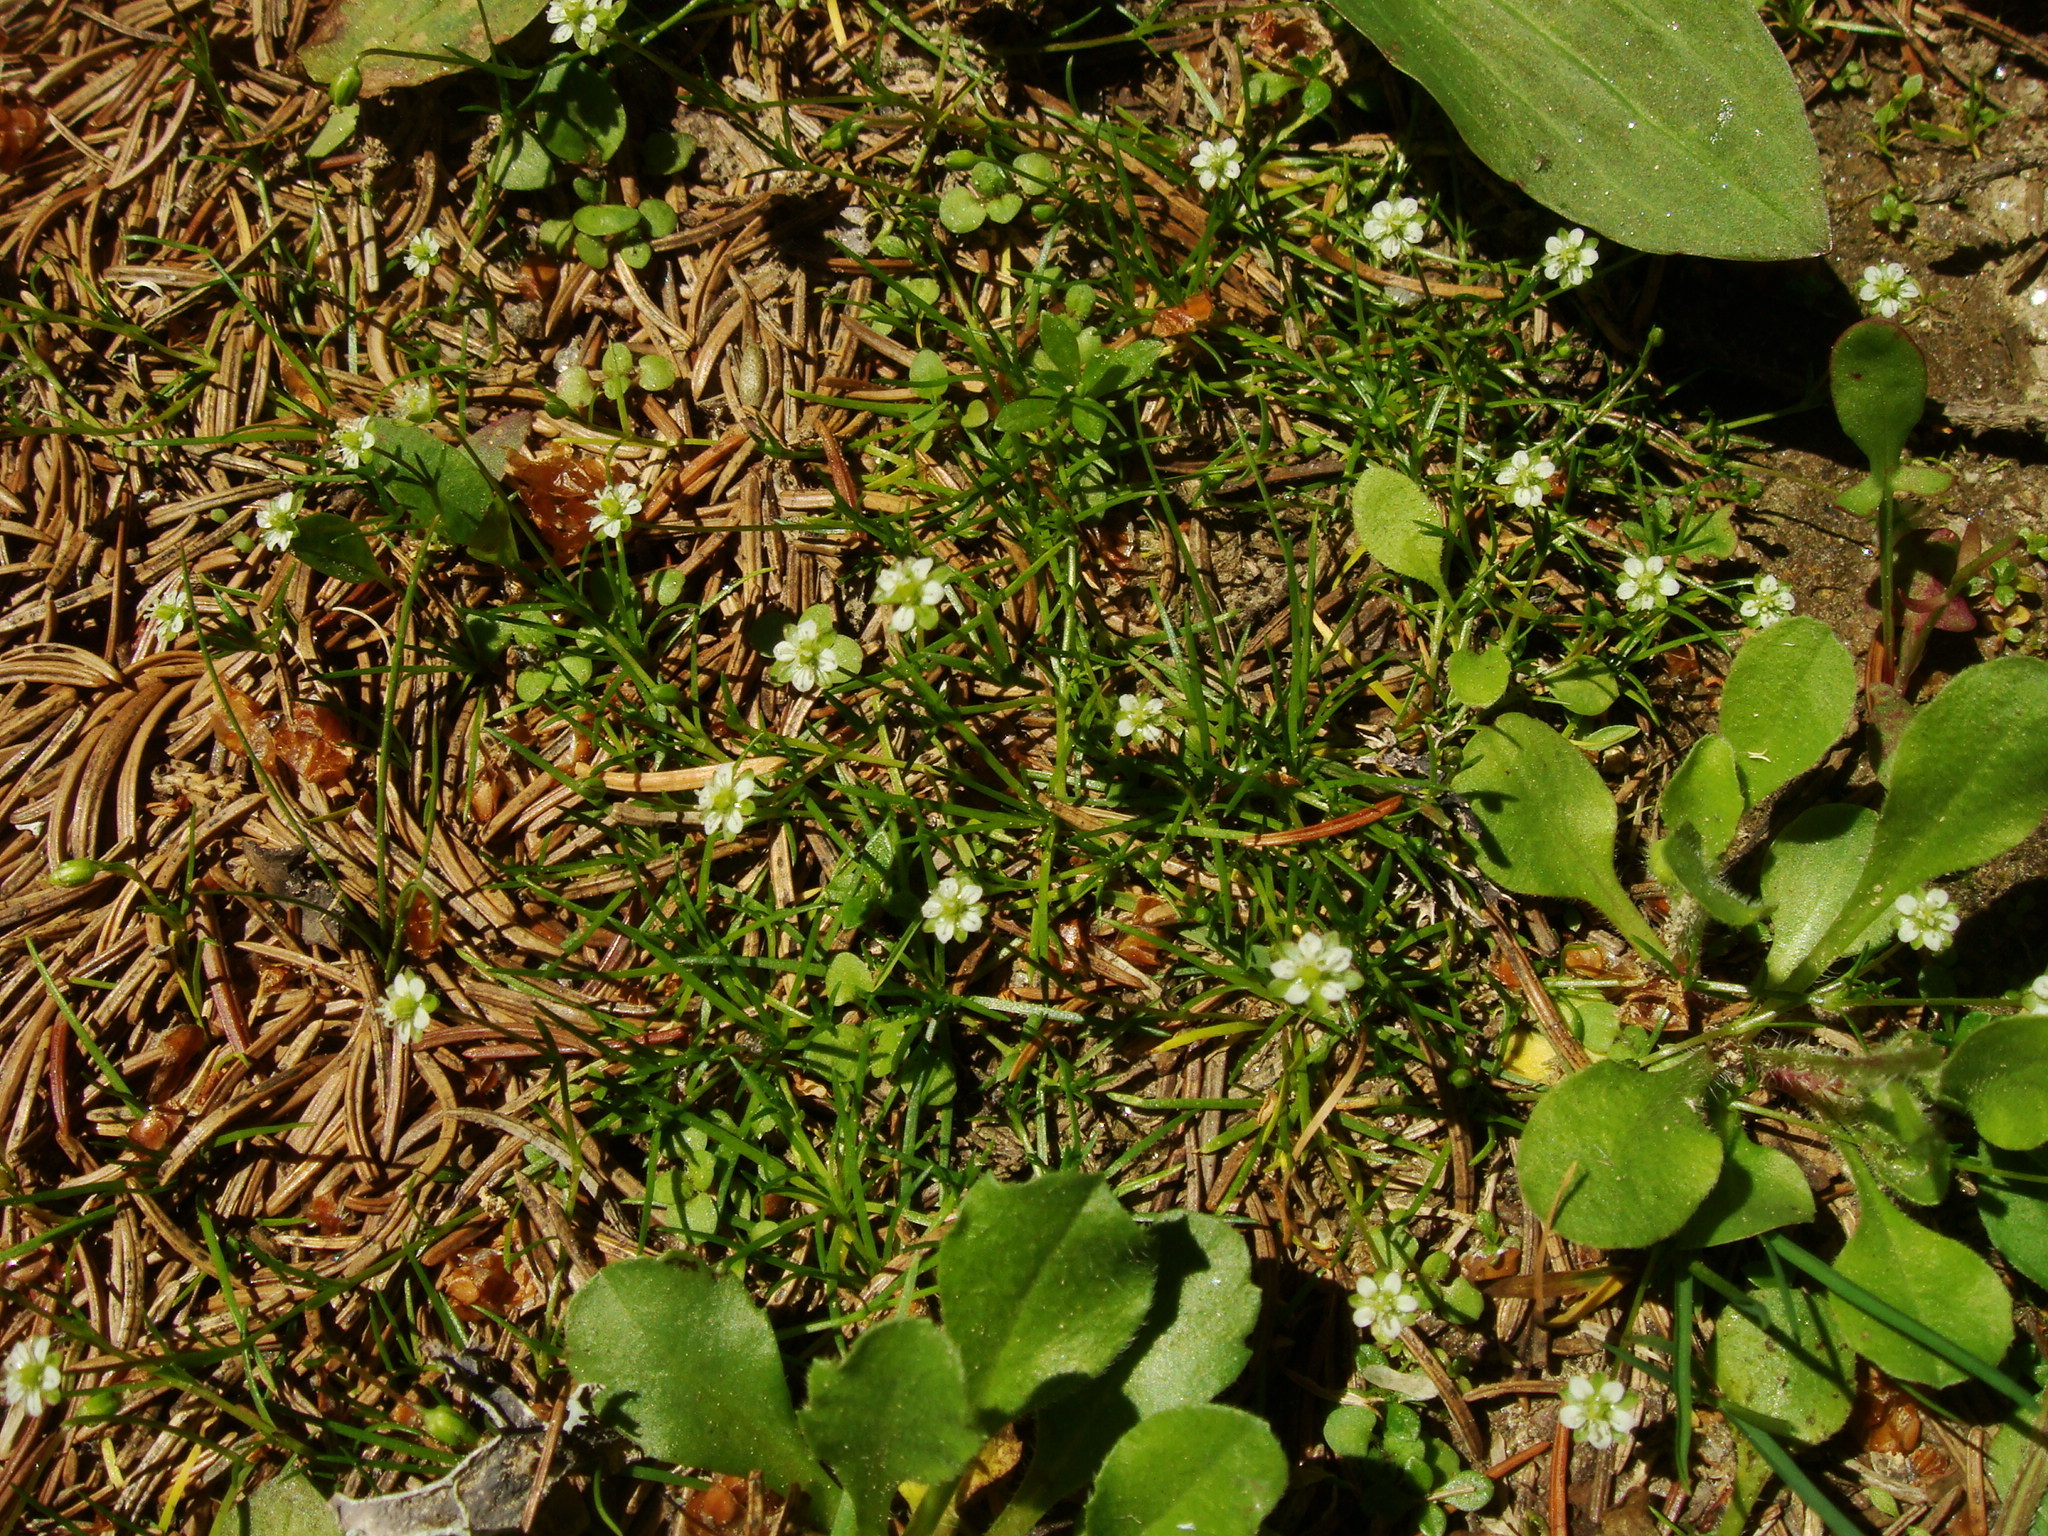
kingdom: Plantae
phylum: Tracheophyta
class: Magnoliopsida
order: Caryophyllales
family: Caryophyllaceae
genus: Sagina
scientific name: Sagina saginoides
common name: Alpine pearlwort
